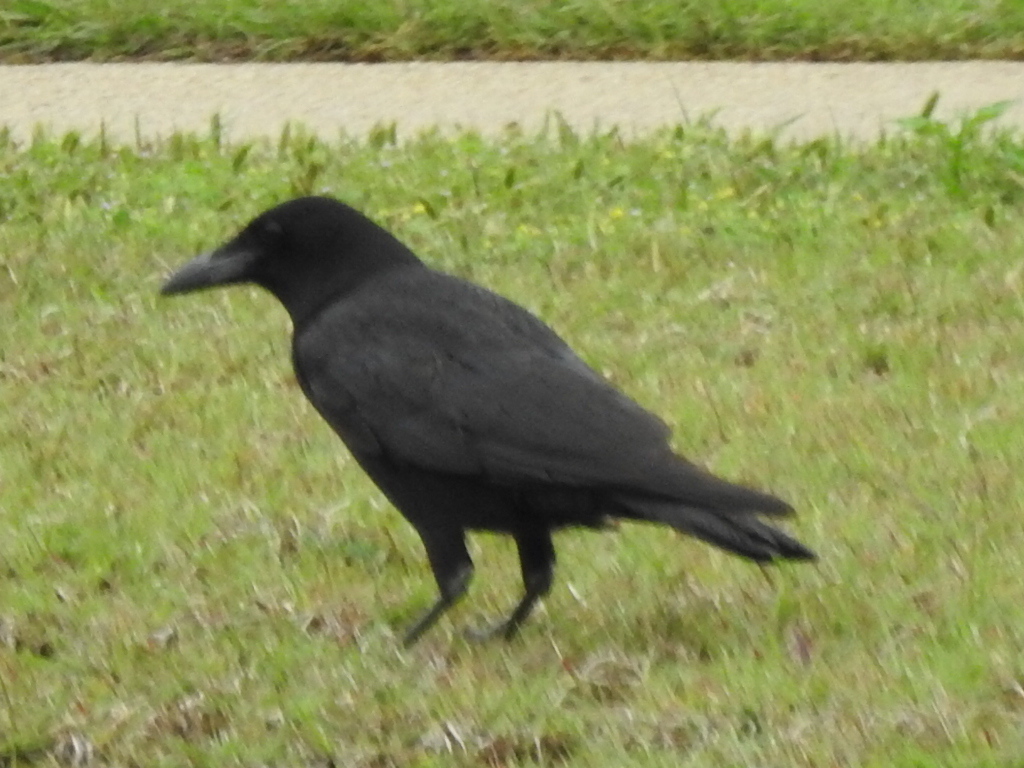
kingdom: Animalia
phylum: Chordata
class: Aves
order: Passeriformes
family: Corvidae
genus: Corvus
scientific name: Corvus brachyrhynchos
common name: American crow
